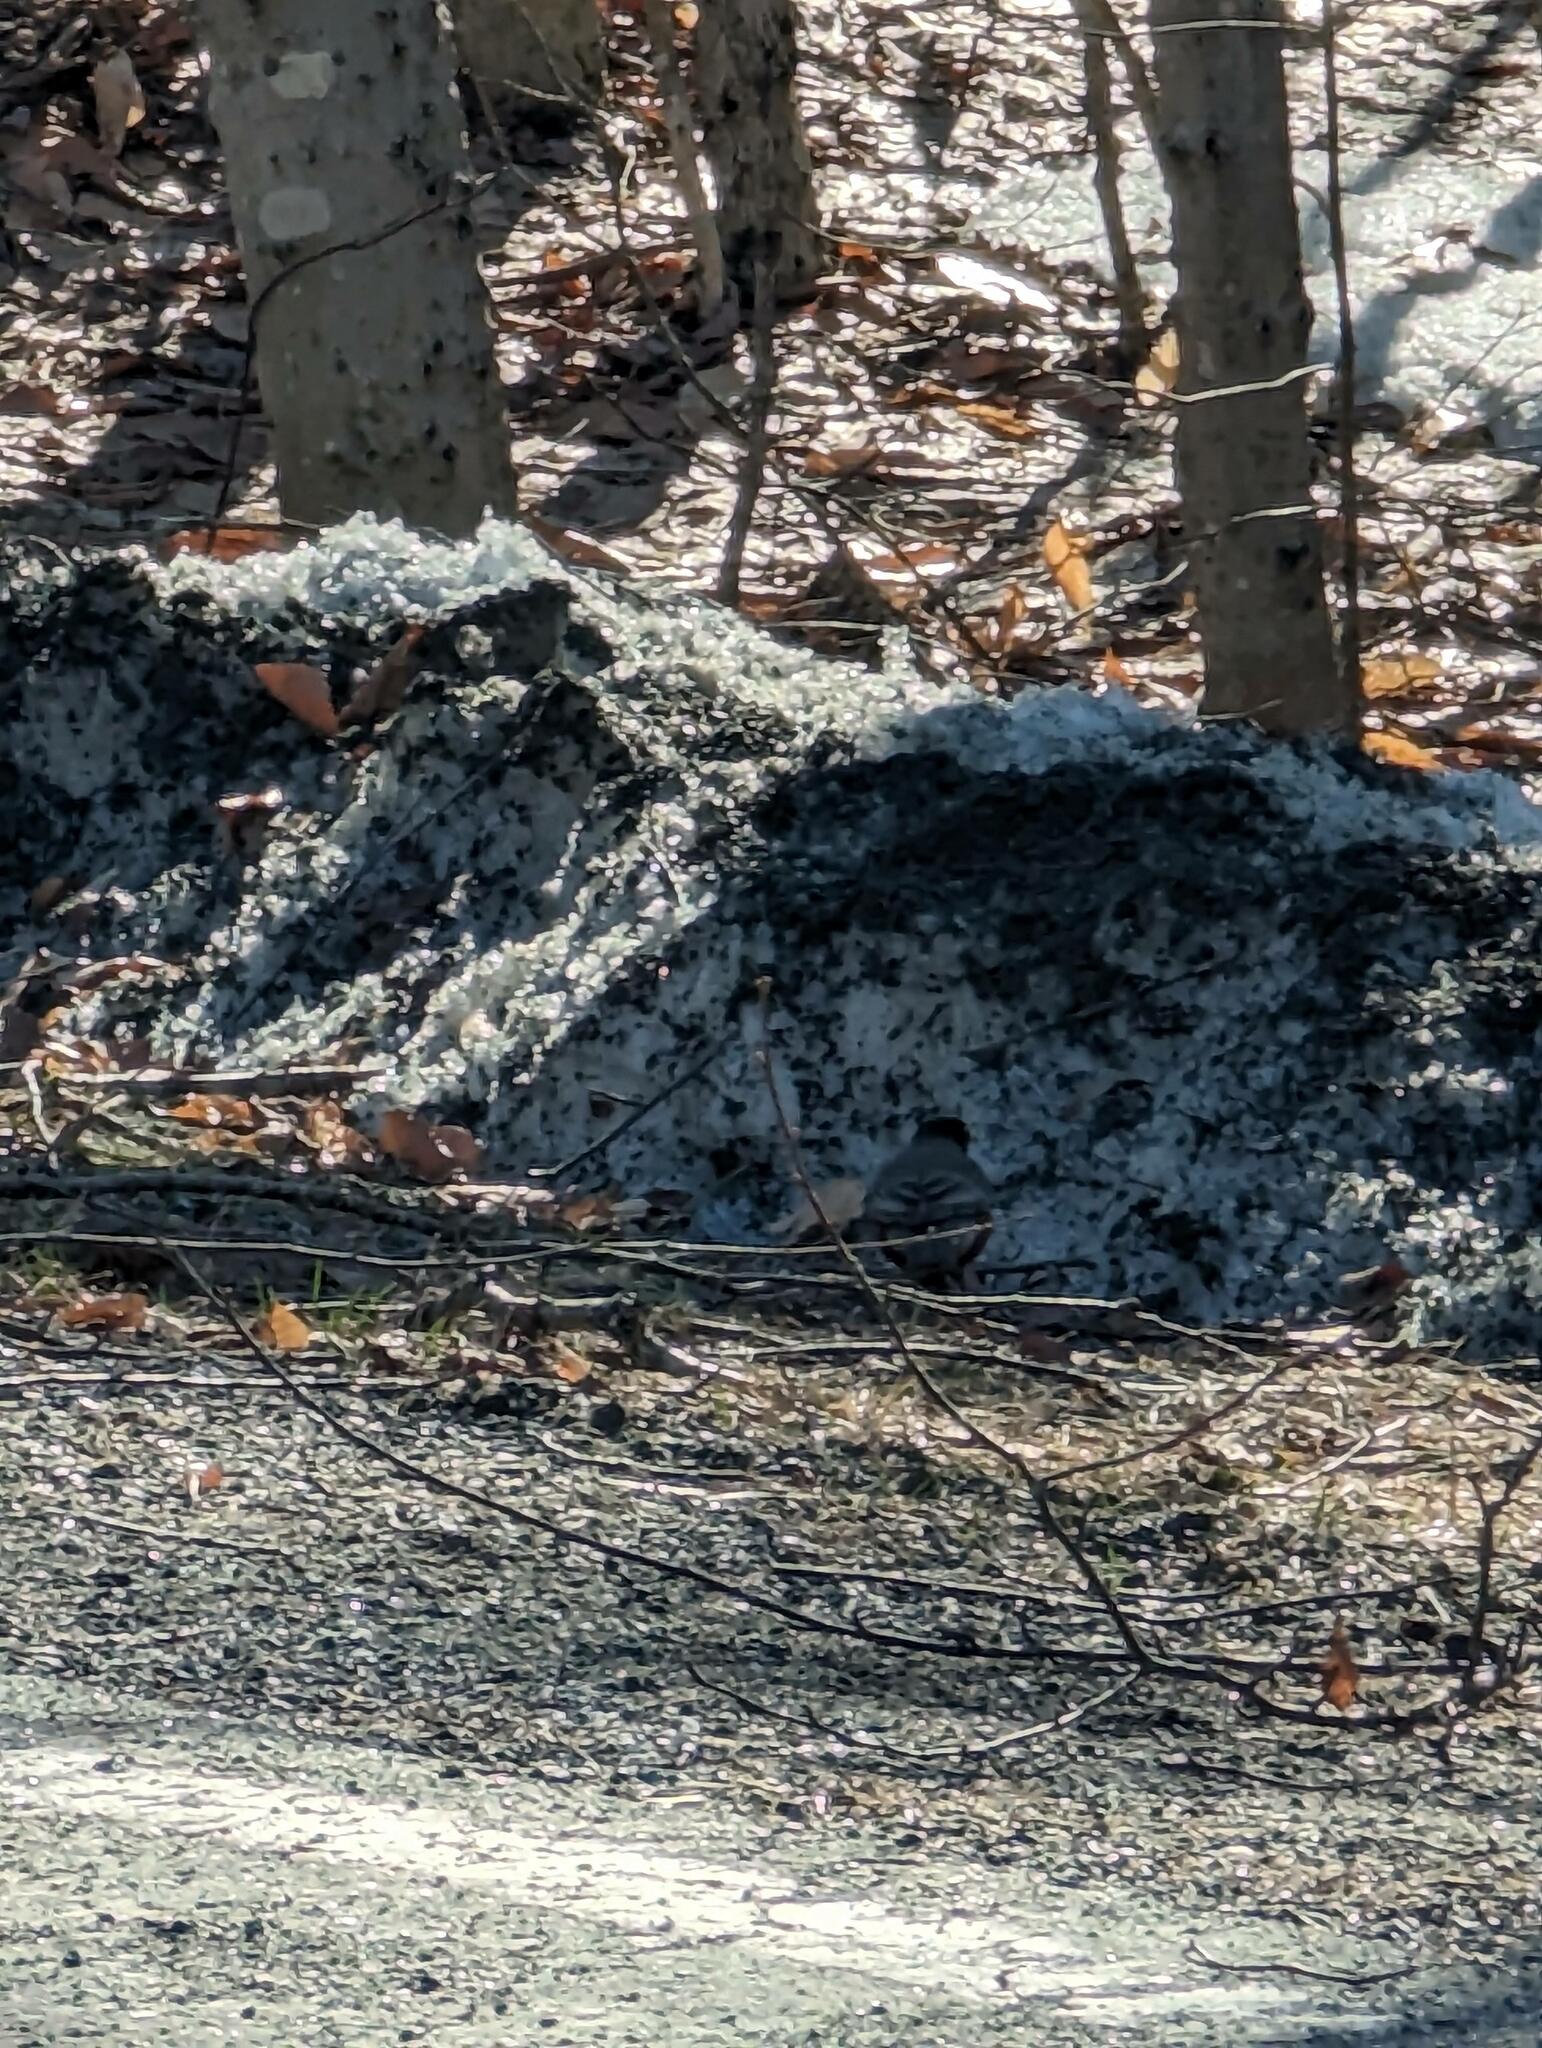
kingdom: Animalia
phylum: Chordata
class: Aves
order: Passeriformes
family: Turdidae
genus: Turdus
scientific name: Turdus migratorius
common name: American robin
